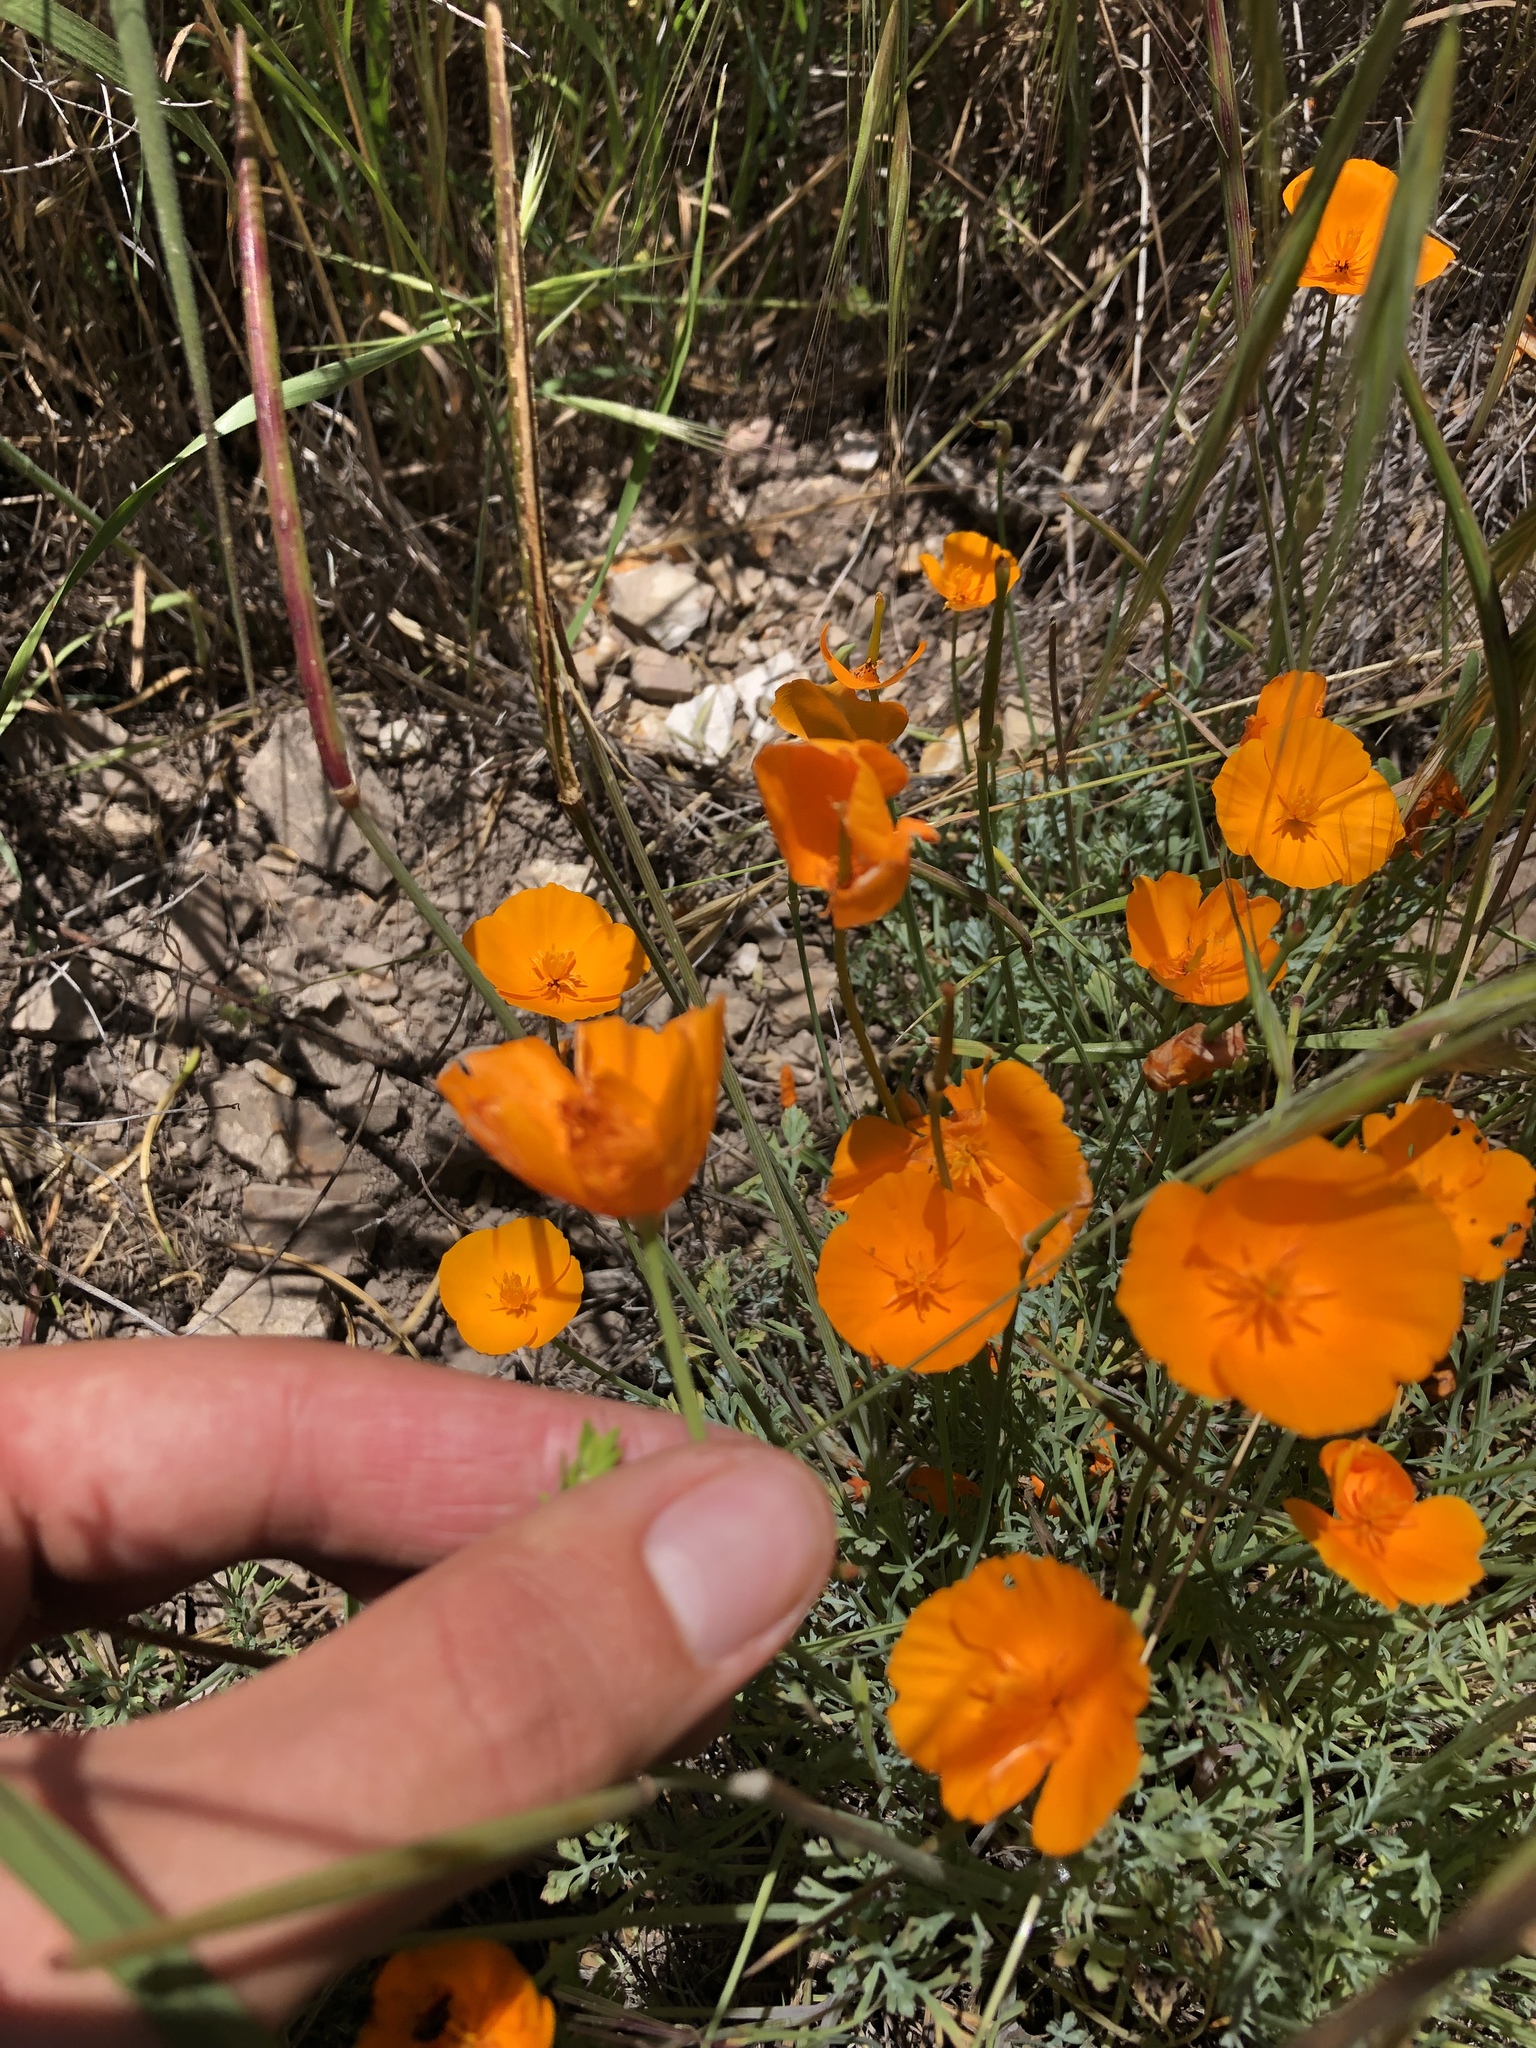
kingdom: Plantae
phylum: Tracheophyta
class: Magnoliopsida
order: Ranunculales
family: Papaveraceae
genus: Eschscholzia
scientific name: Eschscholzia caespitosa
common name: Tufted california-poppy
